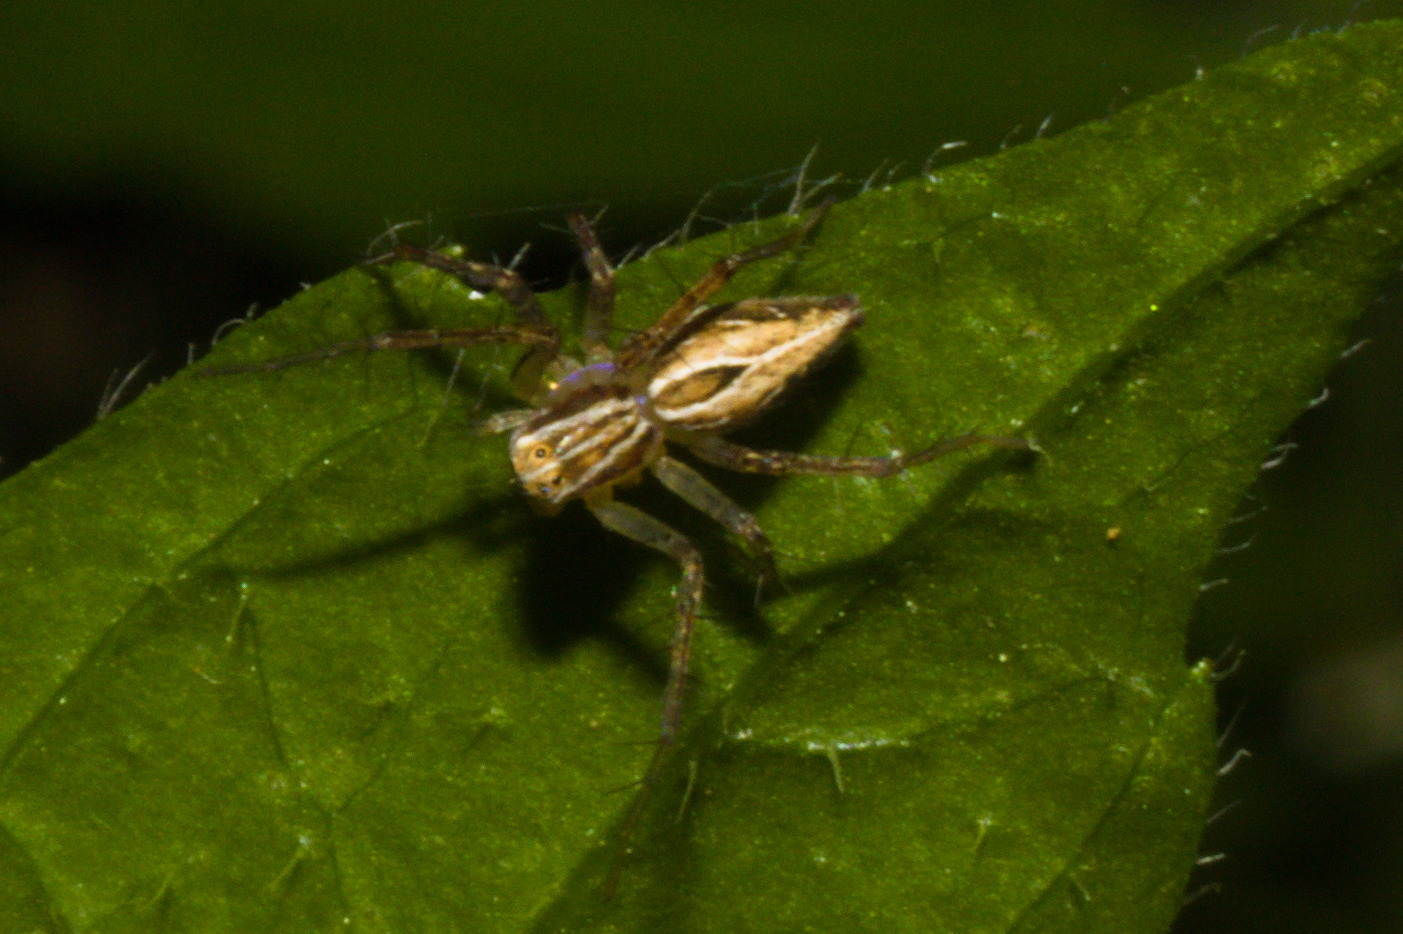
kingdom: Animalia
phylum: Arthropoda
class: Arachnida
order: Araneae
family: Oxyopidae
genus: Oxyopes
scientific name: Oxyopes salticus
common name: Lynx spiders
